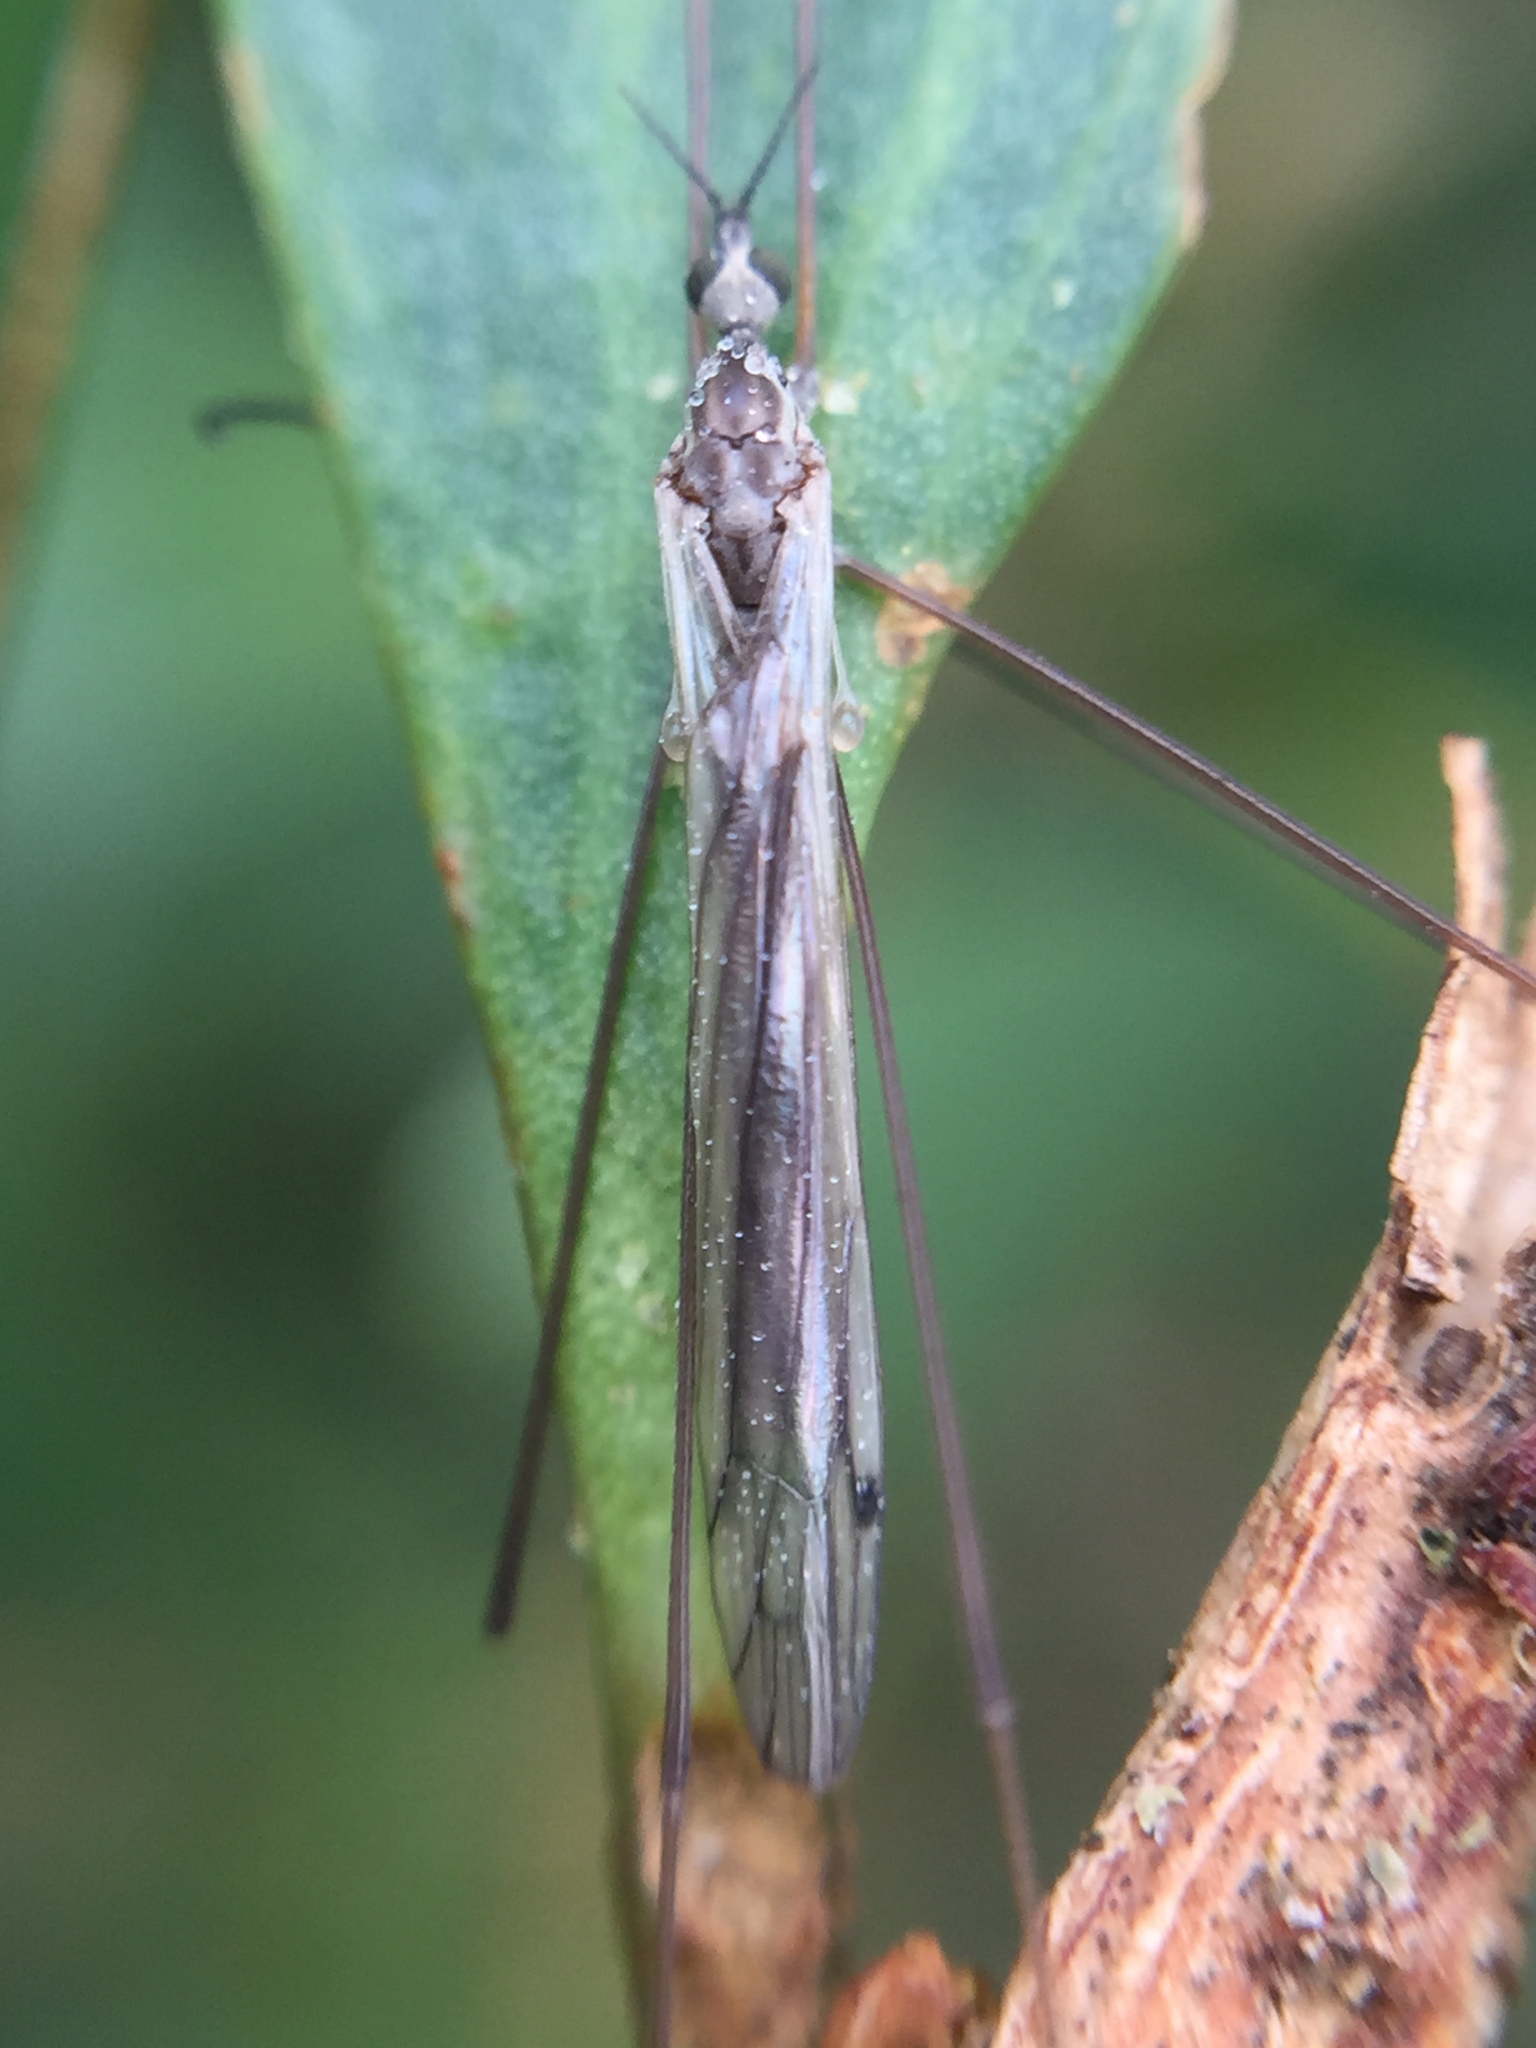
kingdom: Animalia
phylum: Arthropoda
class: Insecta
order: Diptera
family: Limoniidae
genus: Dicranomyia
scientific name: Dicranomyia aegrotans
